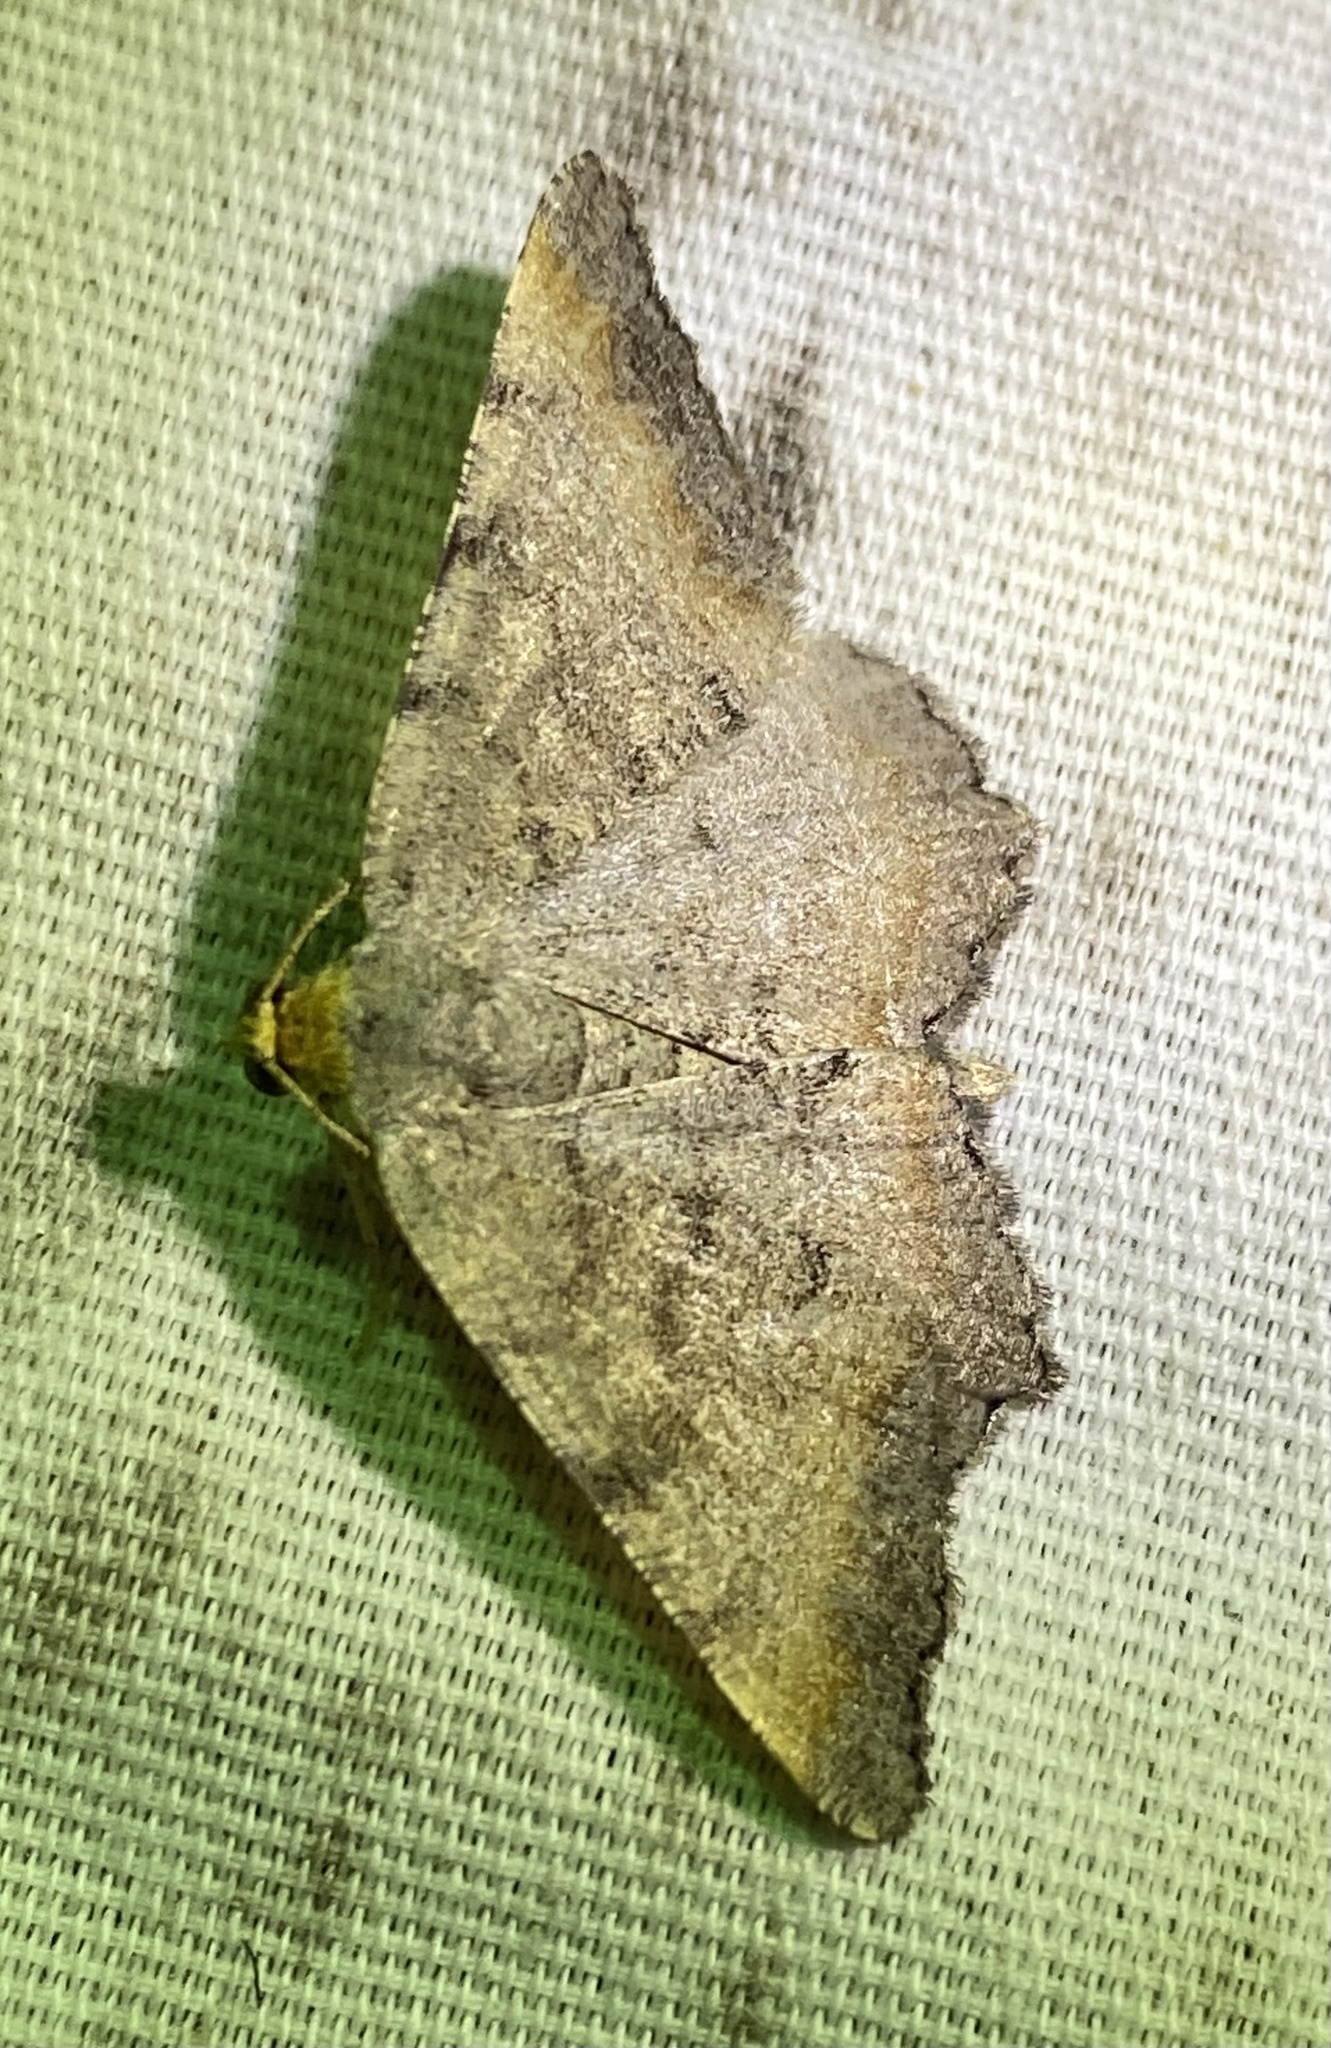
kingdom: Animalia
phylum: Arthropoda
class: Insecta
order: Lepidoptera
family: Geometridae
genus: Macaria
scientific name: Macaria transitaria
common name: Blurry chocolate angle
